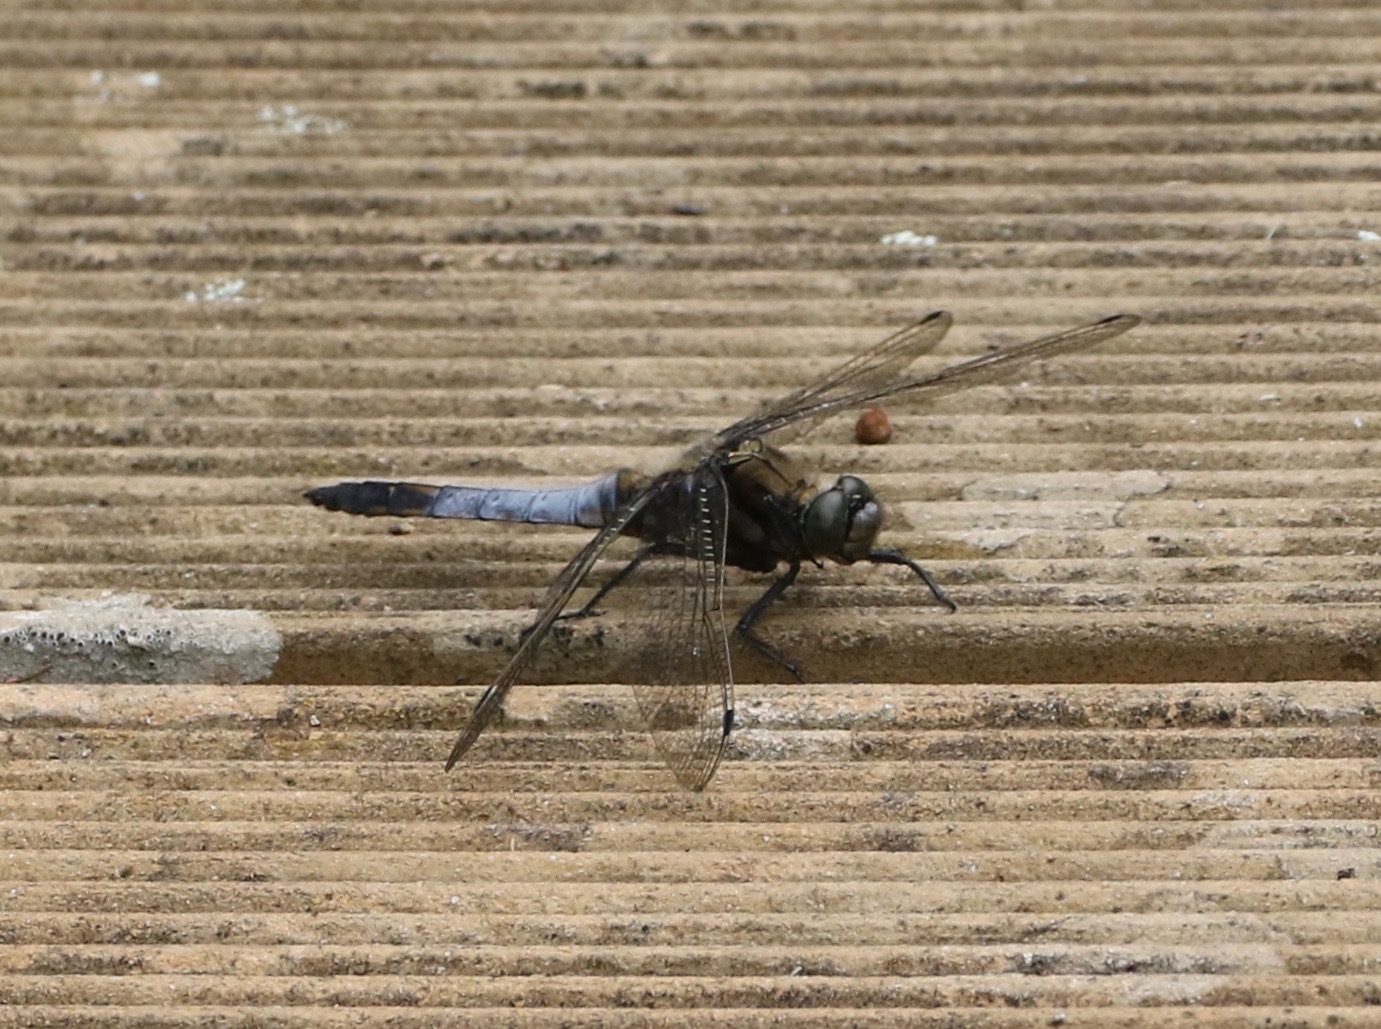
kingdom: Animalia
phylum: Arthropoda
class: Insecta
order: Odonata
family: Libellulidae
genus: Orthetrum
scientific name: Orthetrum cancellatum
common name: Black-tailed skimmer
